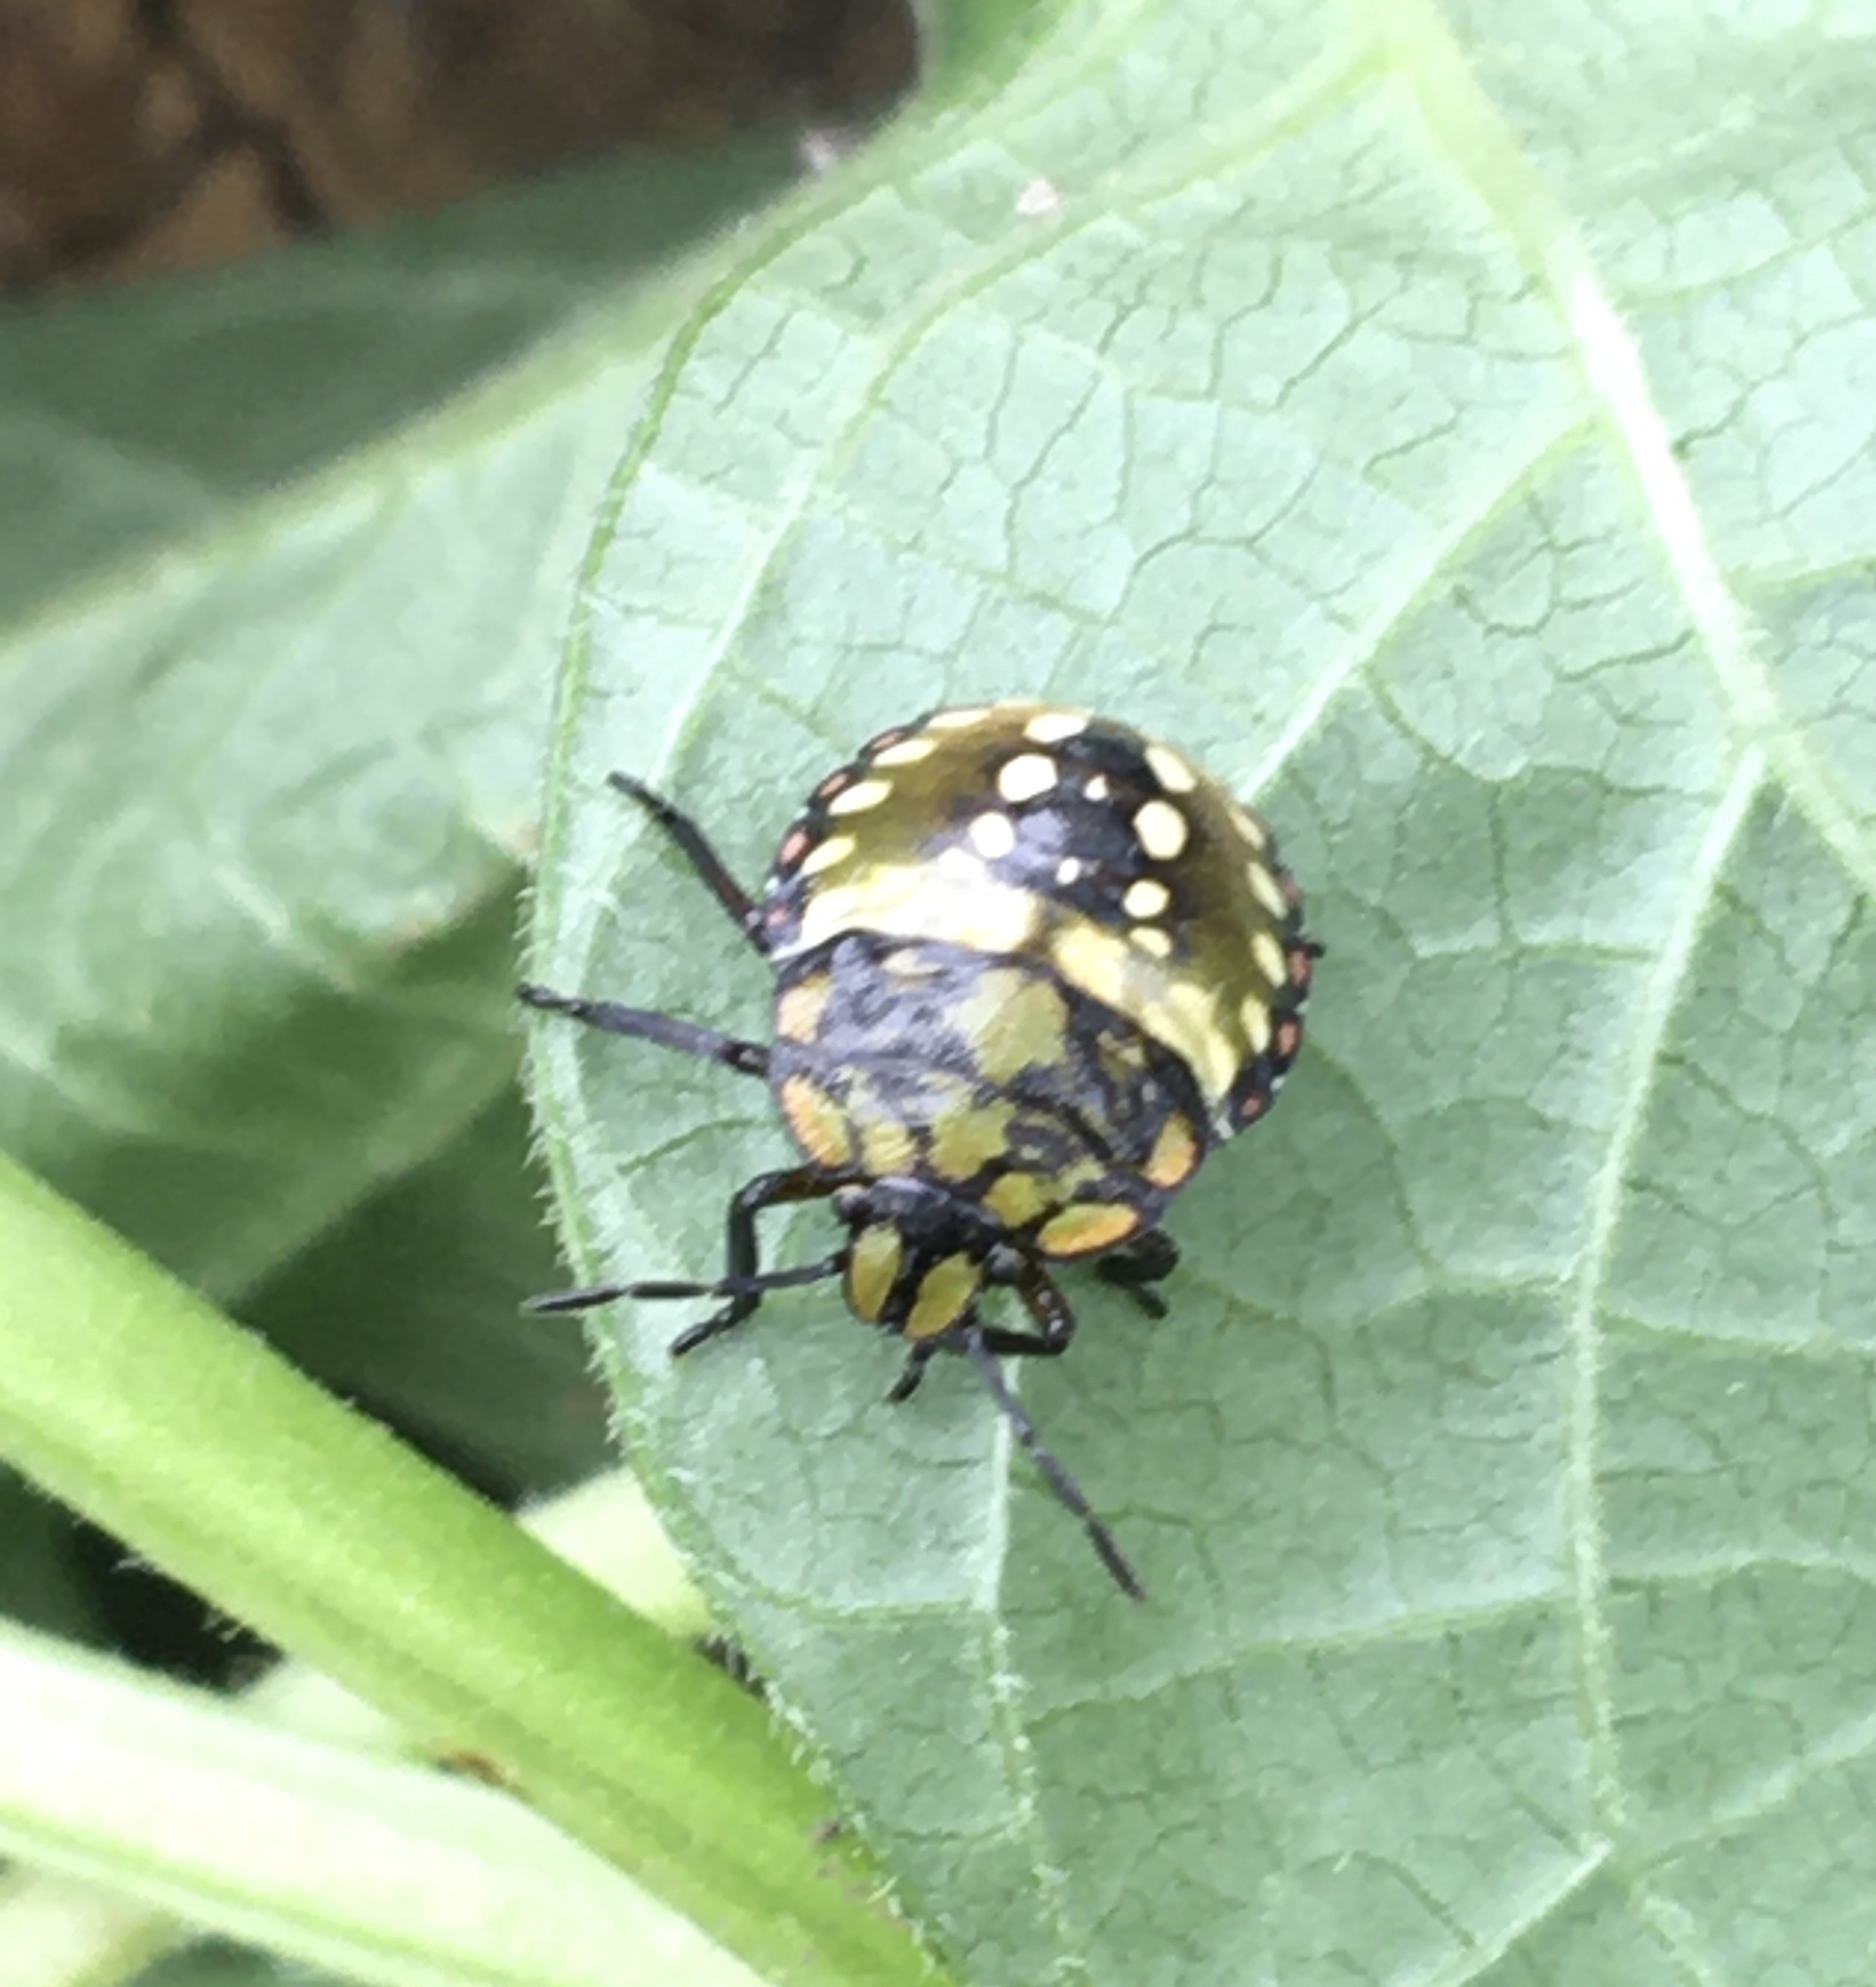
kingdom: Animalia
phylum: Arthropoda
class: Insecta
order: Hemiptera
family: Pentatomidae
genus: Nezara
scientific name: Nezara viridula
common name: Southern green stink bug
